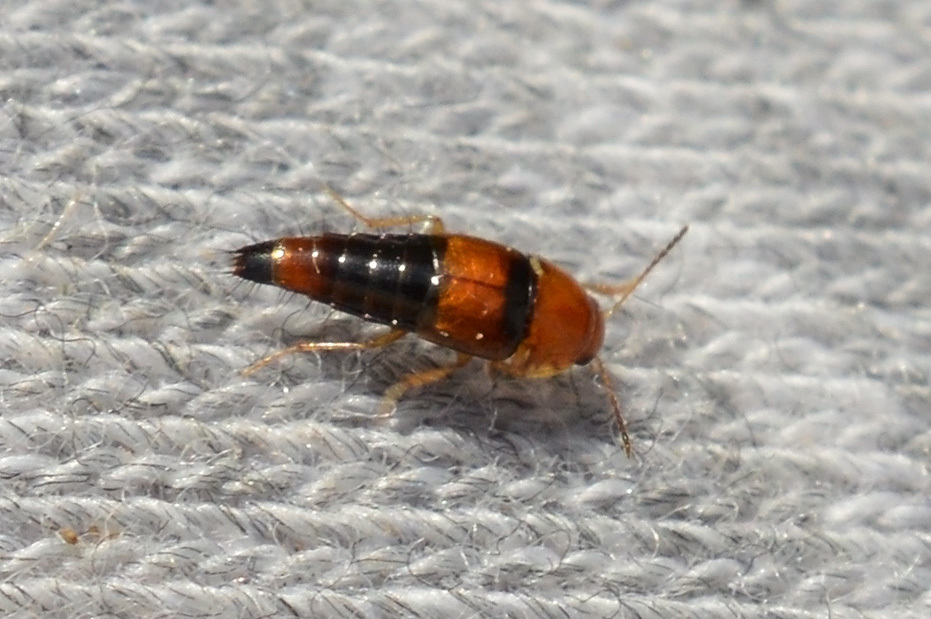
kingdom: Animalia
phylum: Arthropoda
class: Insecta
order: Coleoptera
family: Staphylinidae
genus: Tachyporus
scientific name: Tachyporus formosus
